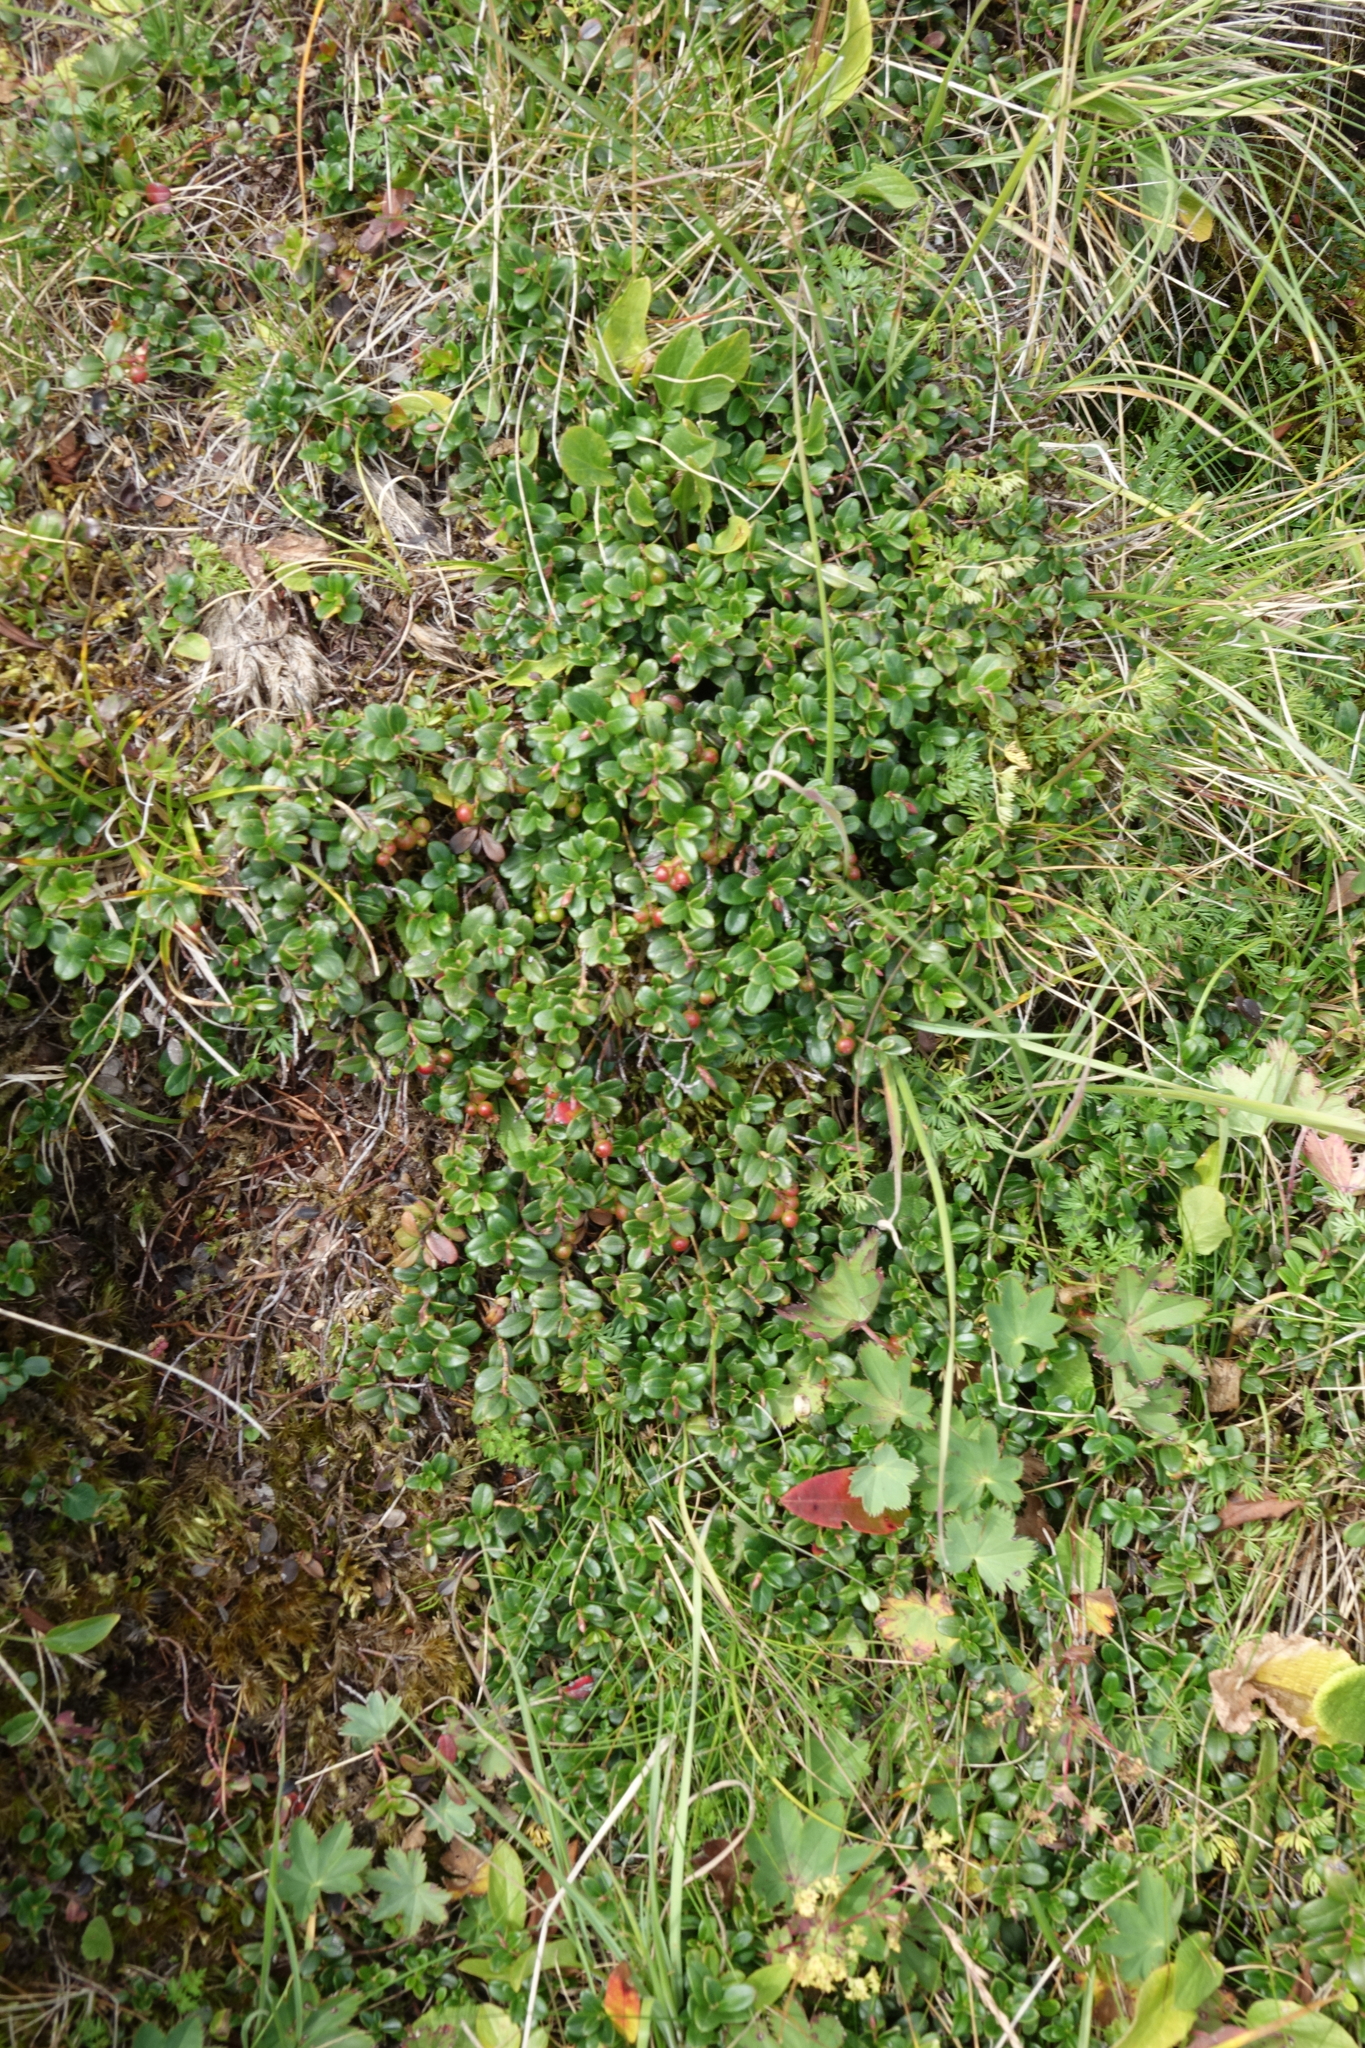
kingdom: Plantae
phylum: Tracheophyta
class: Magnoliopsida
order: Ericales
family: Ericaceae
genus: Vaccinium
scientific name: Vaccinium vitis-idaea
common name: Cowberry
